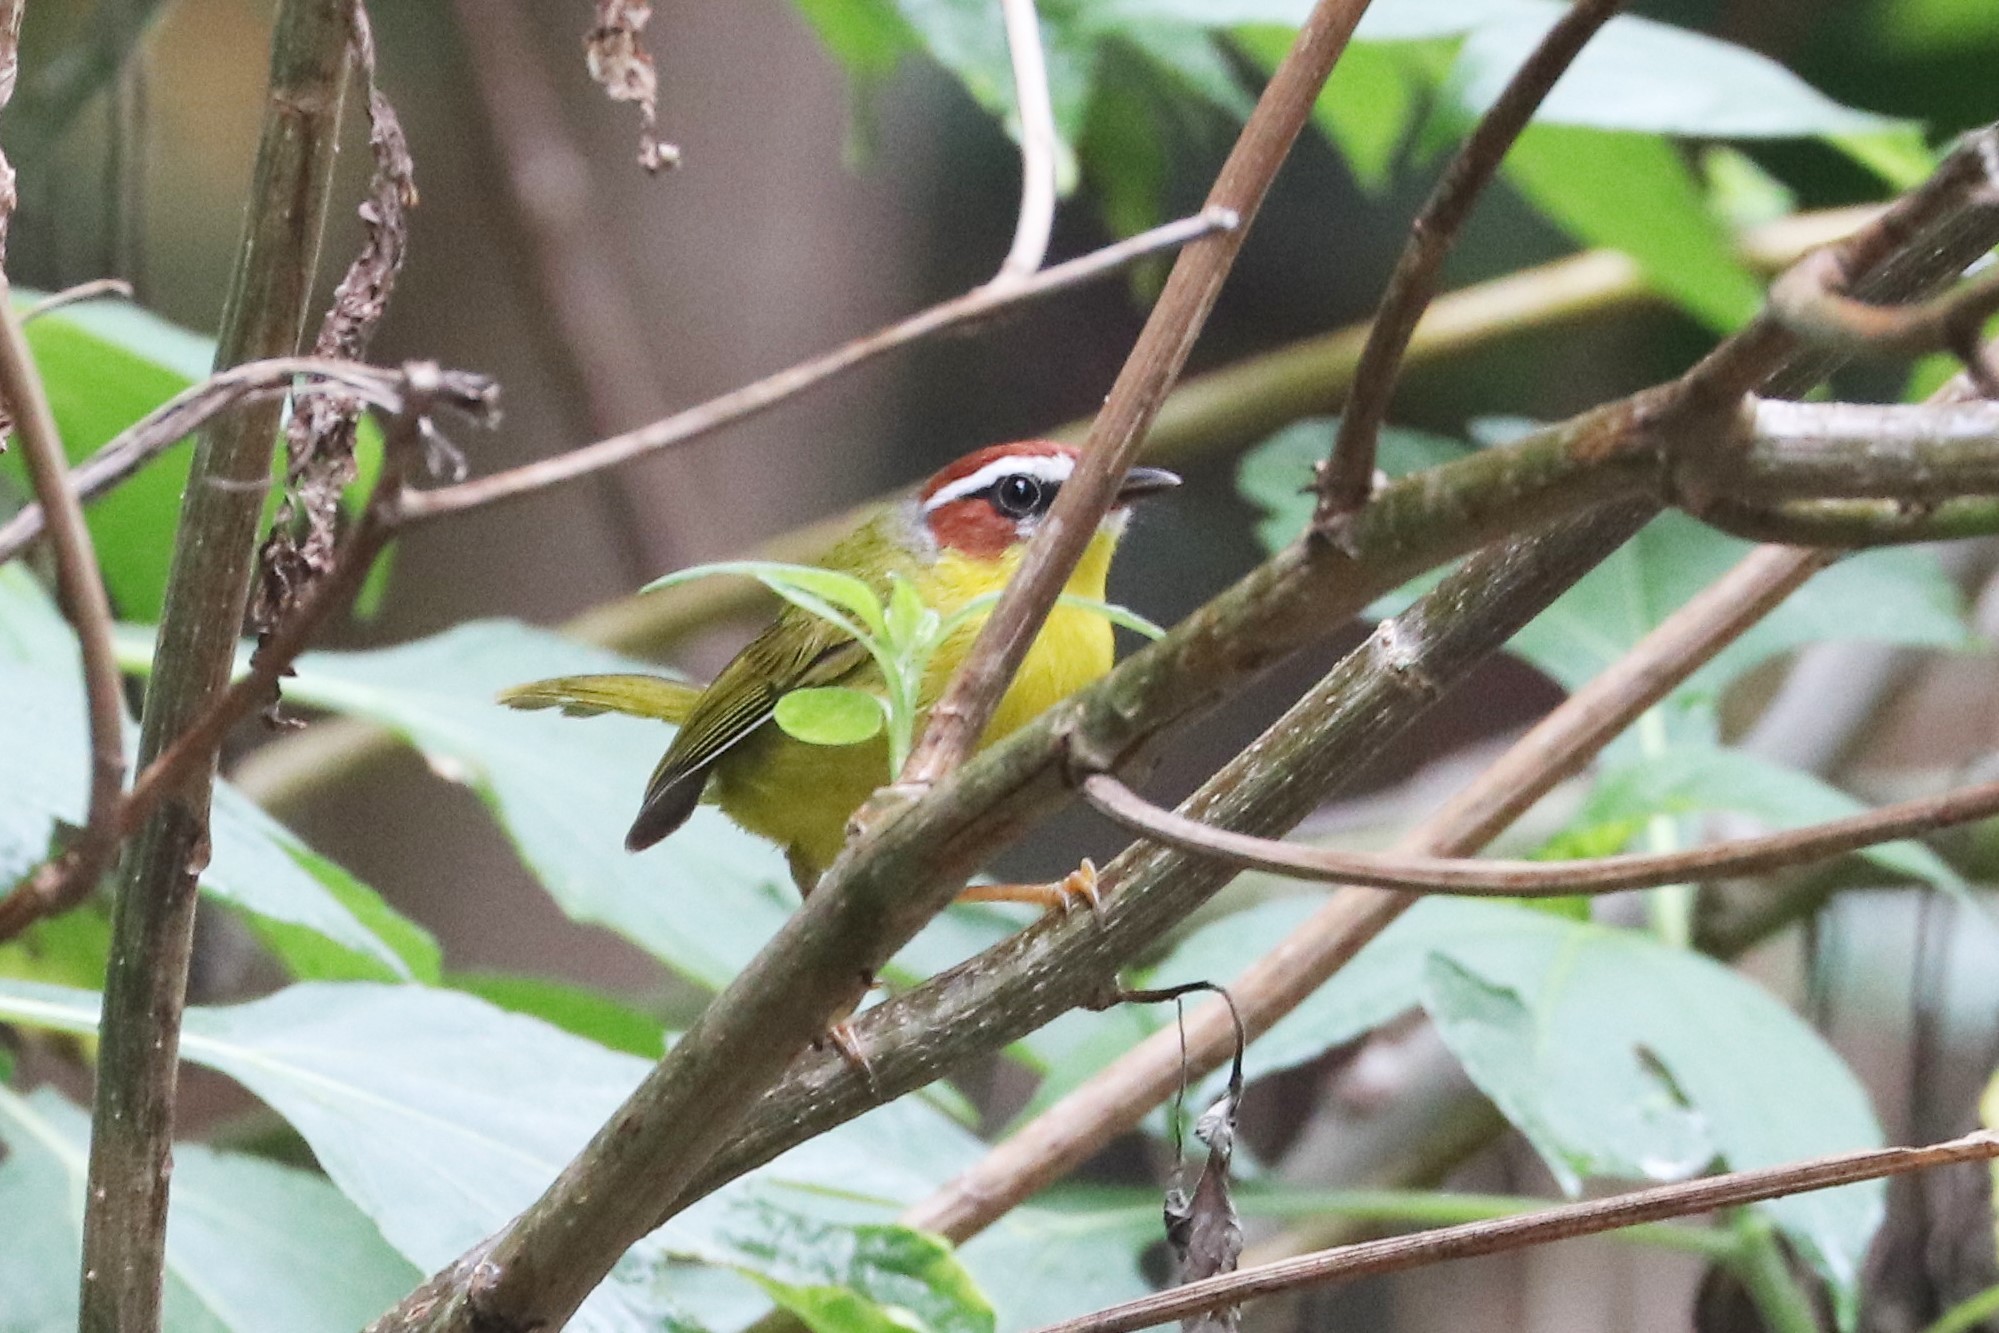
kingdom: Animalia
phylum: Chordata
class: Aves
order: Passeriformes
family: Parulidae
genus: Basileuterus
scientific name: Basileuterus rufifrons
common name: Rufous-capped warbler
